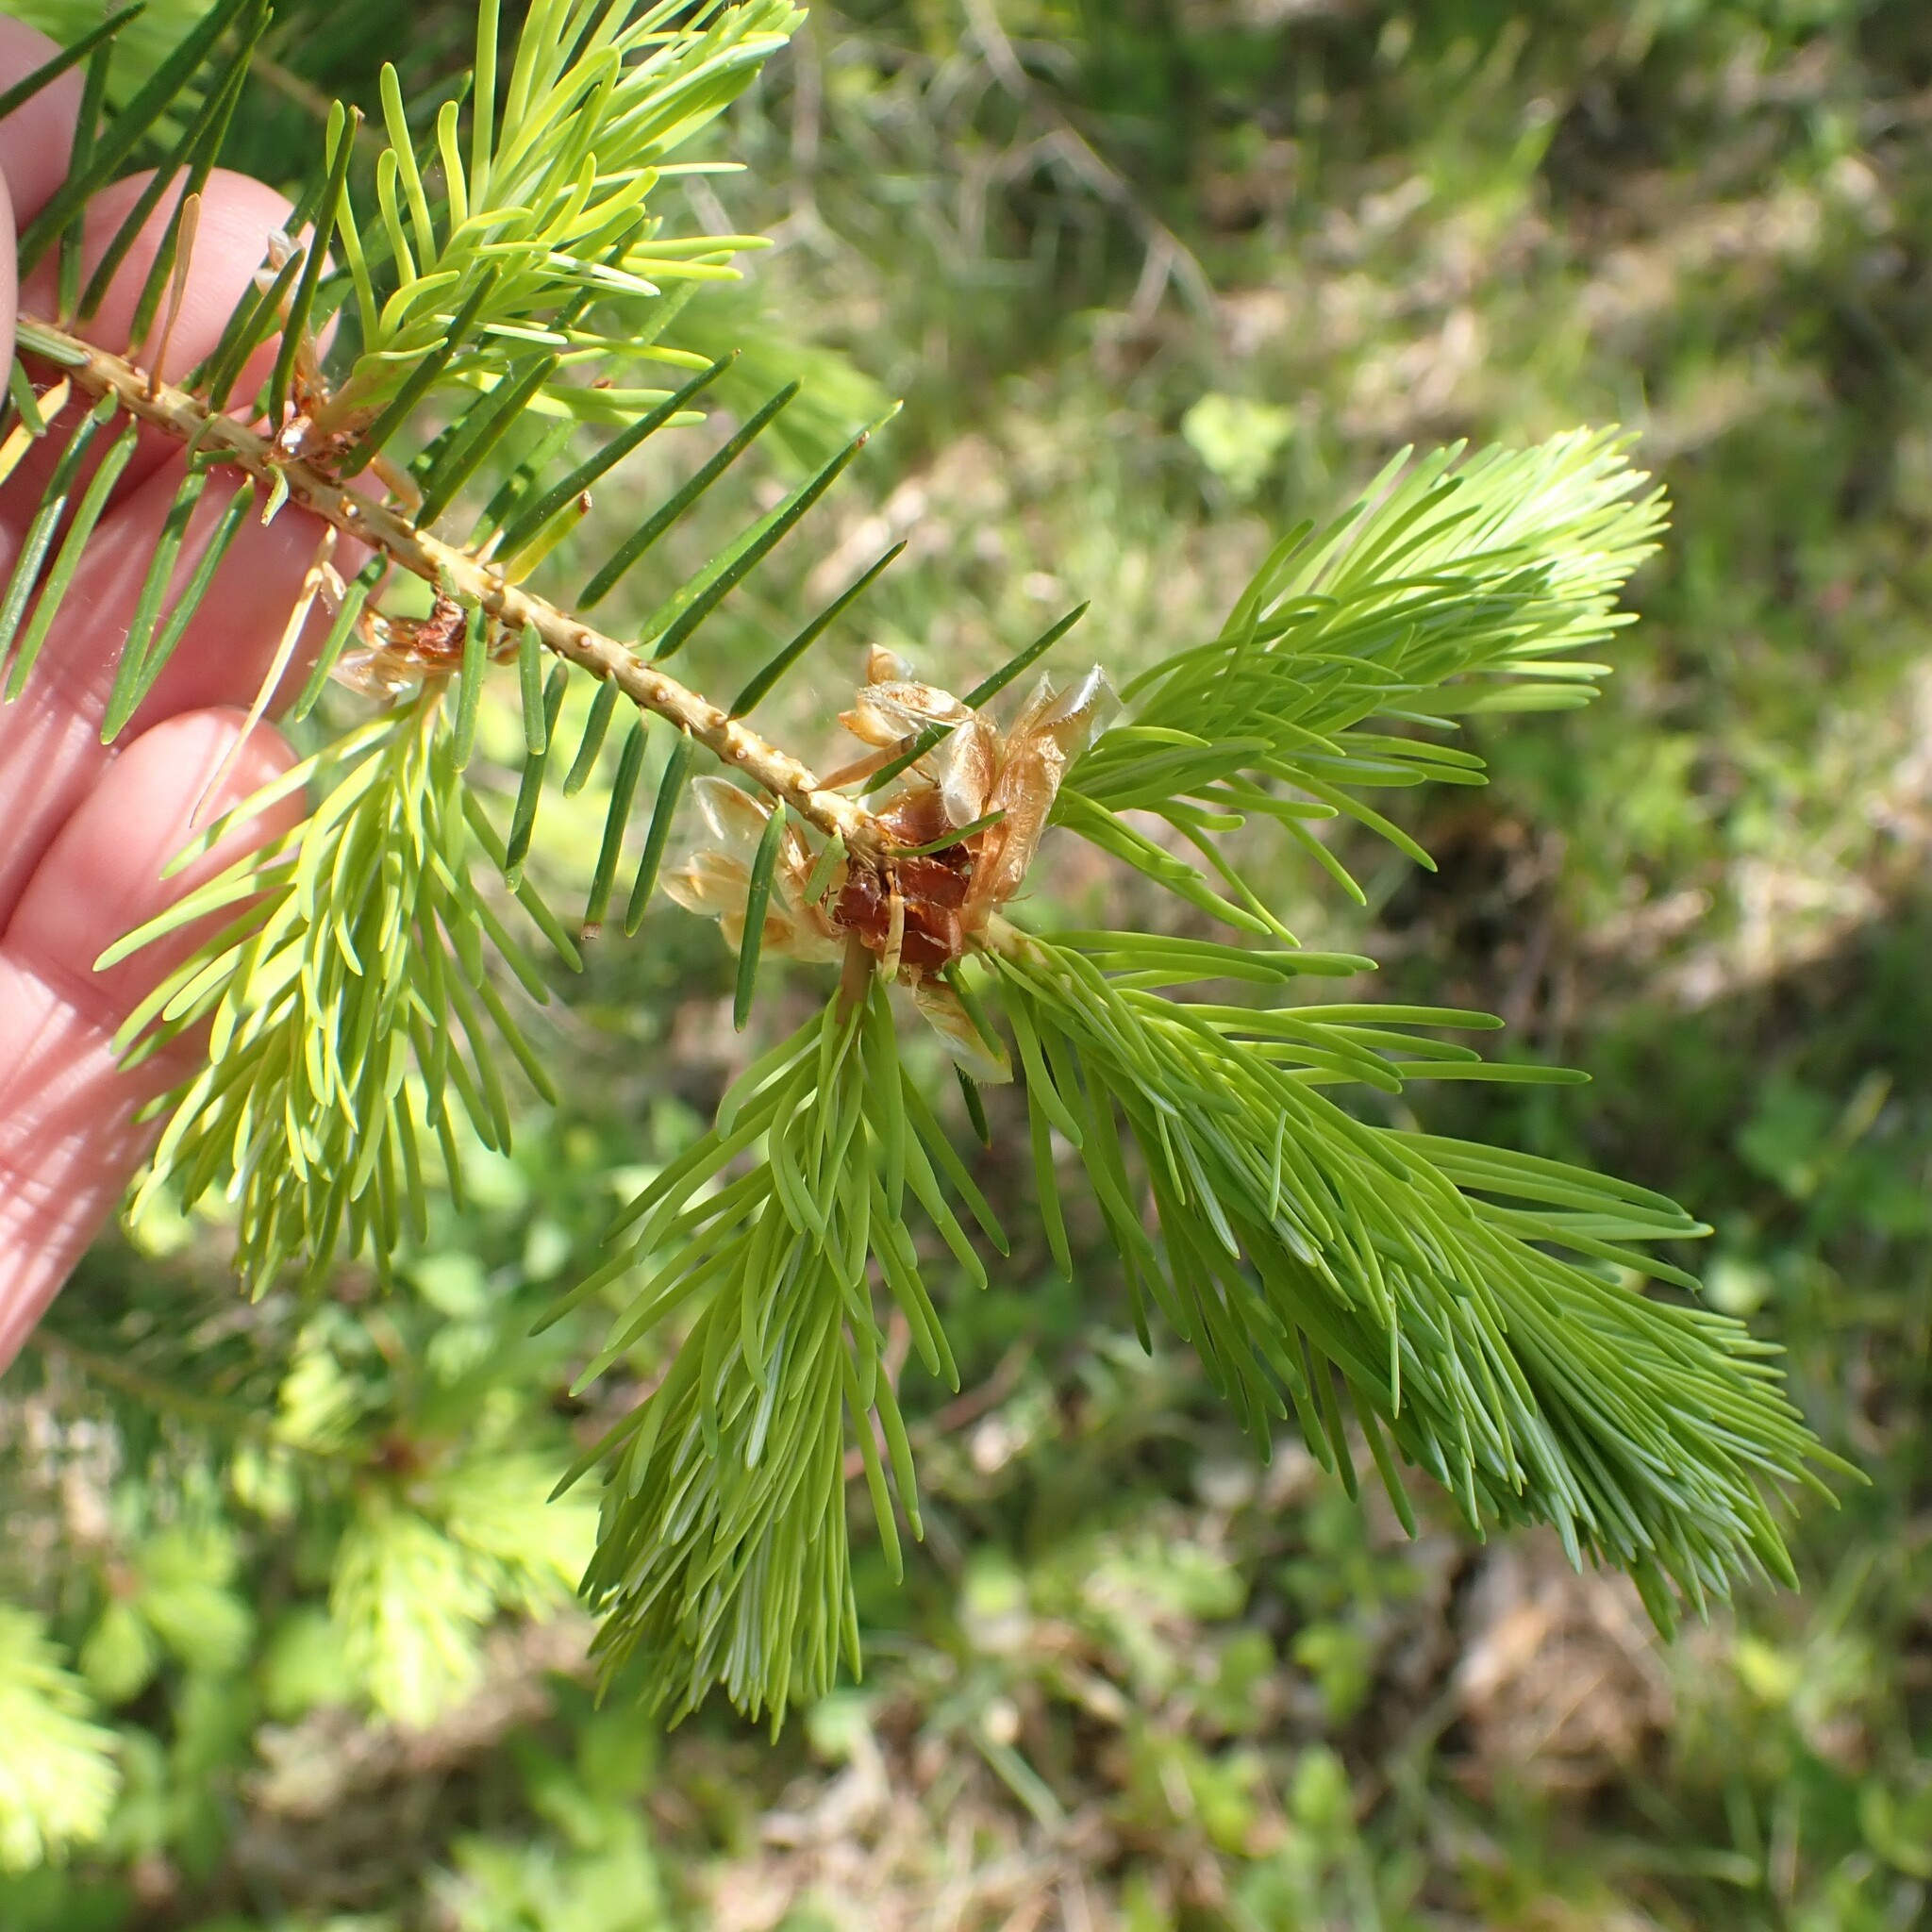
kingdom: Plantae
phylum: Tracheophyta
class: Pinopsida
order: Pinales
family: Pinaceae
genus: Pseudotsuga
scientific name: Pseudotsuga menziesii
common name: Douglas fir
